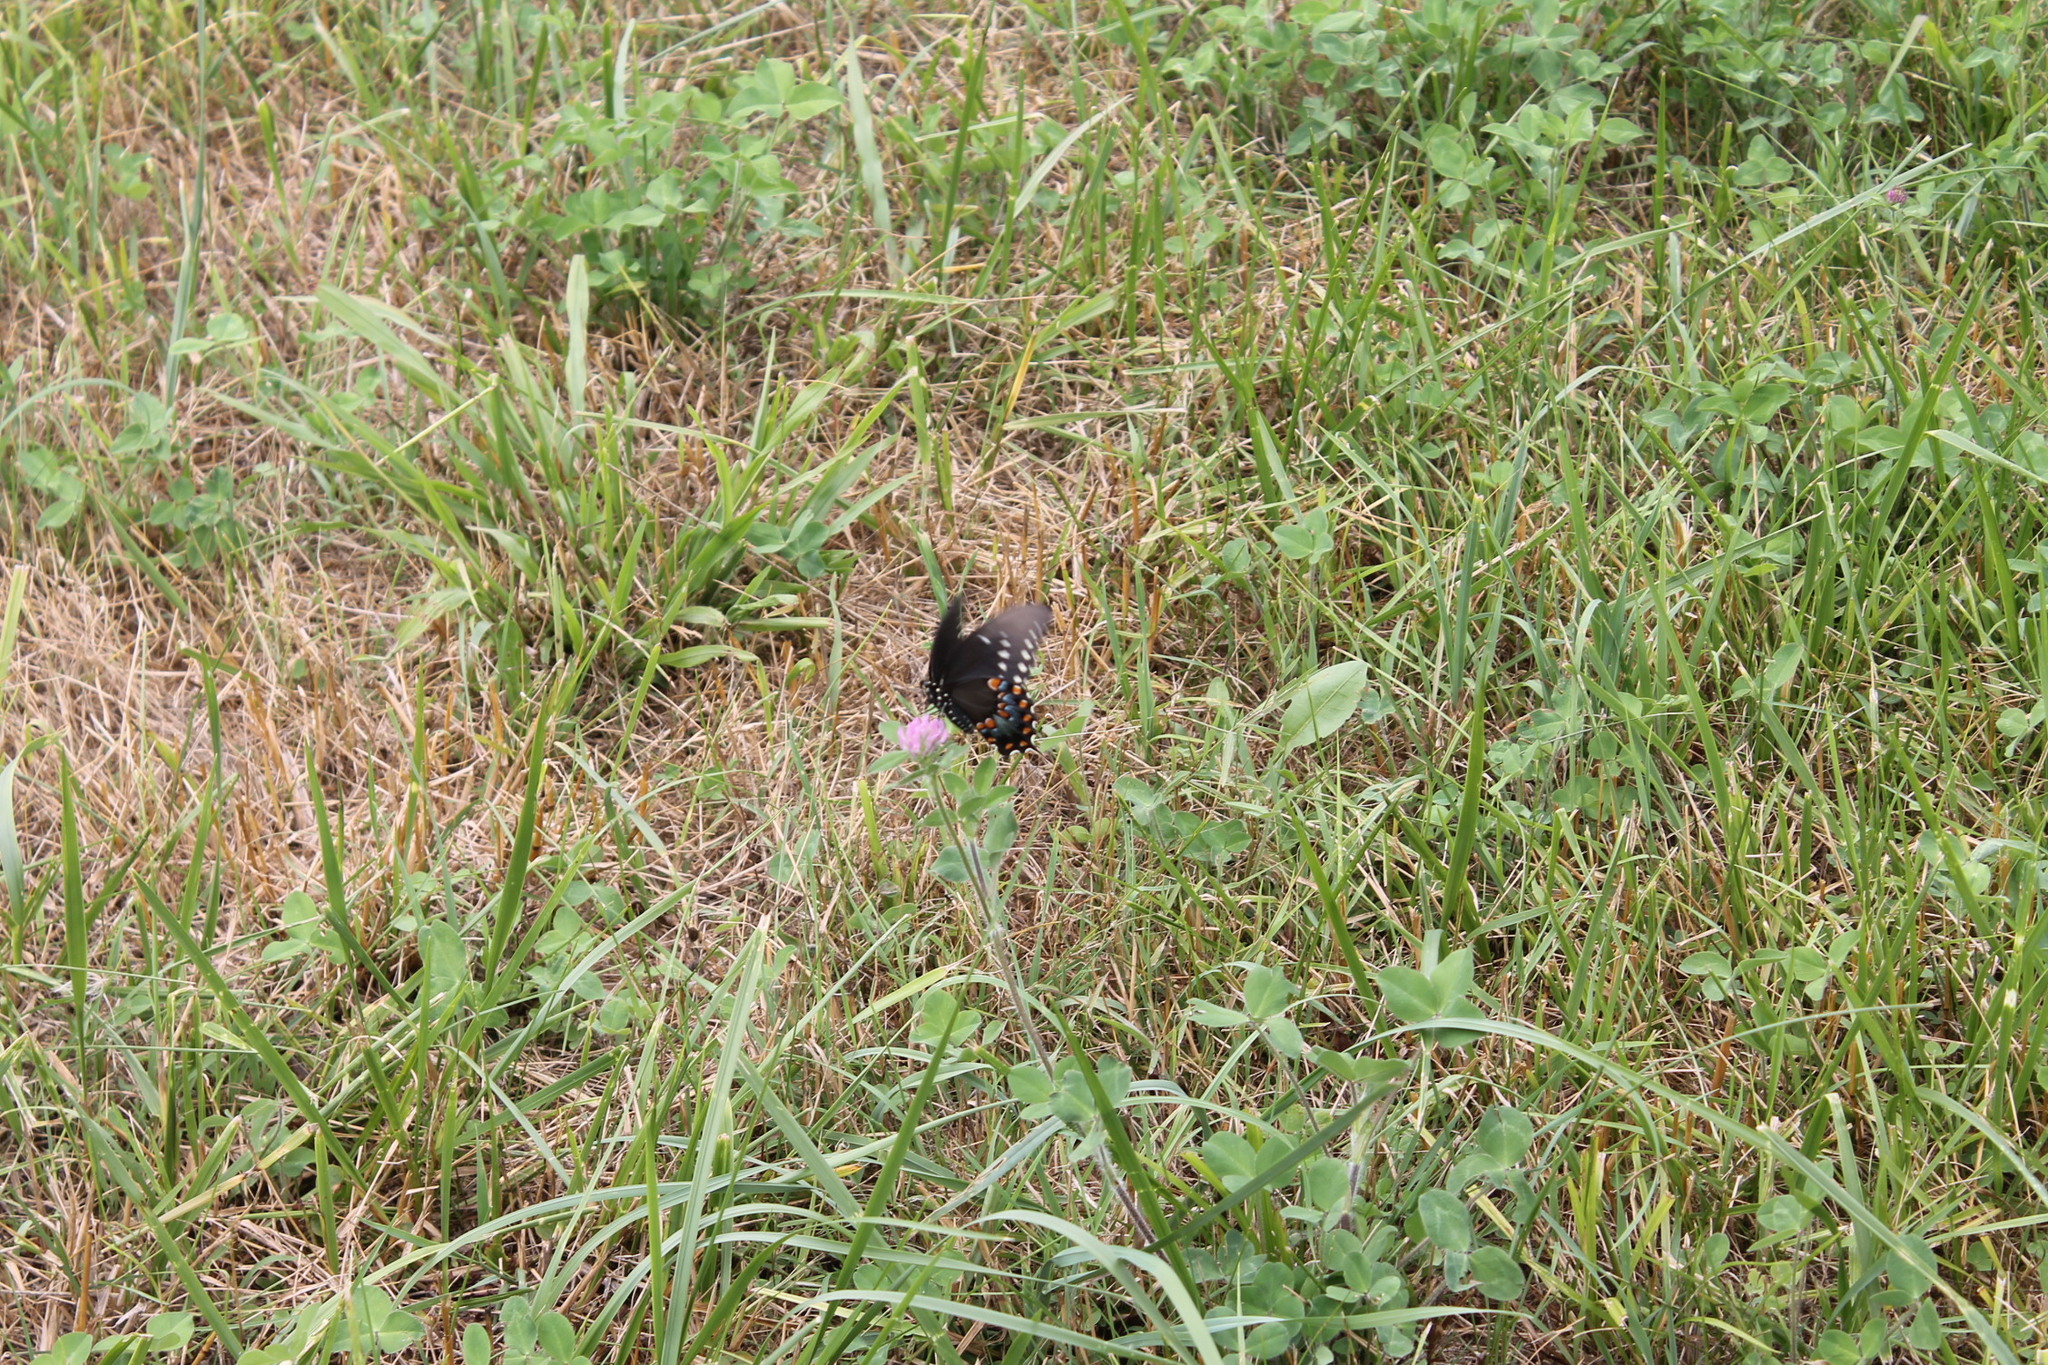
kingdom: Animalia
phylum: Arthropoda
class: Insecta
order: Lepidoptera
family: Papilionidae
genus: Papilio
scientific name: Papilio troilus
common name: Spicebush swallowtail
